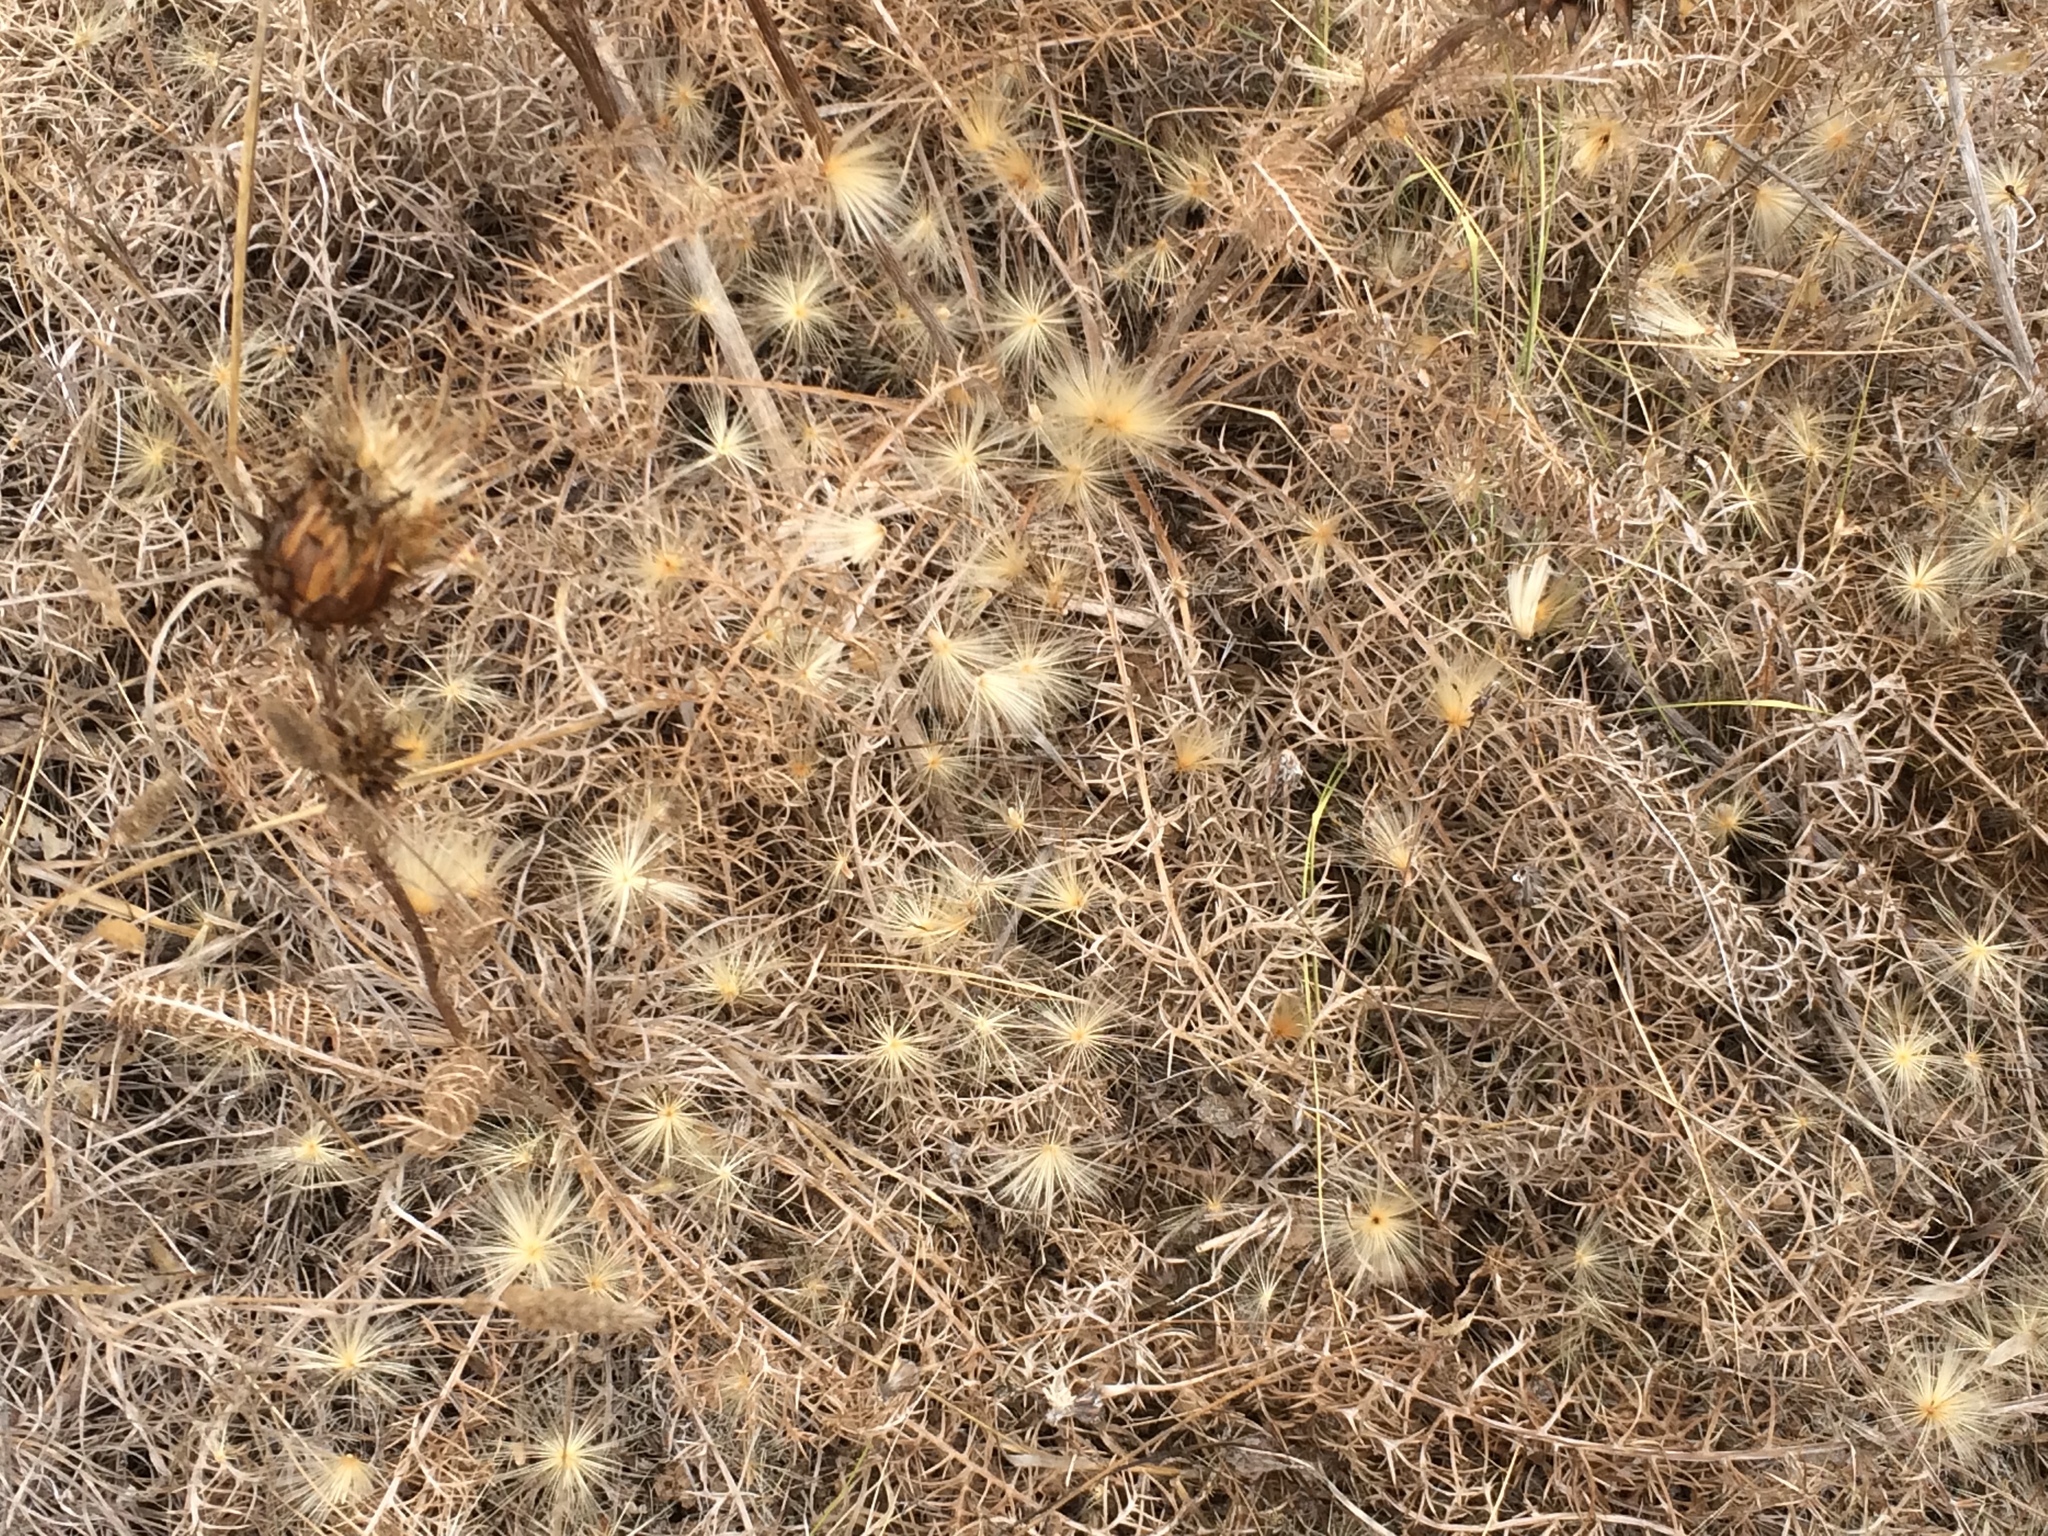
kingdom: Plantae
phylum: Tracheophyta
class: Magnoliopsida
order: Asterales
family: Asteraceae
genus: Cynara
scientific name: Cynara humilis
